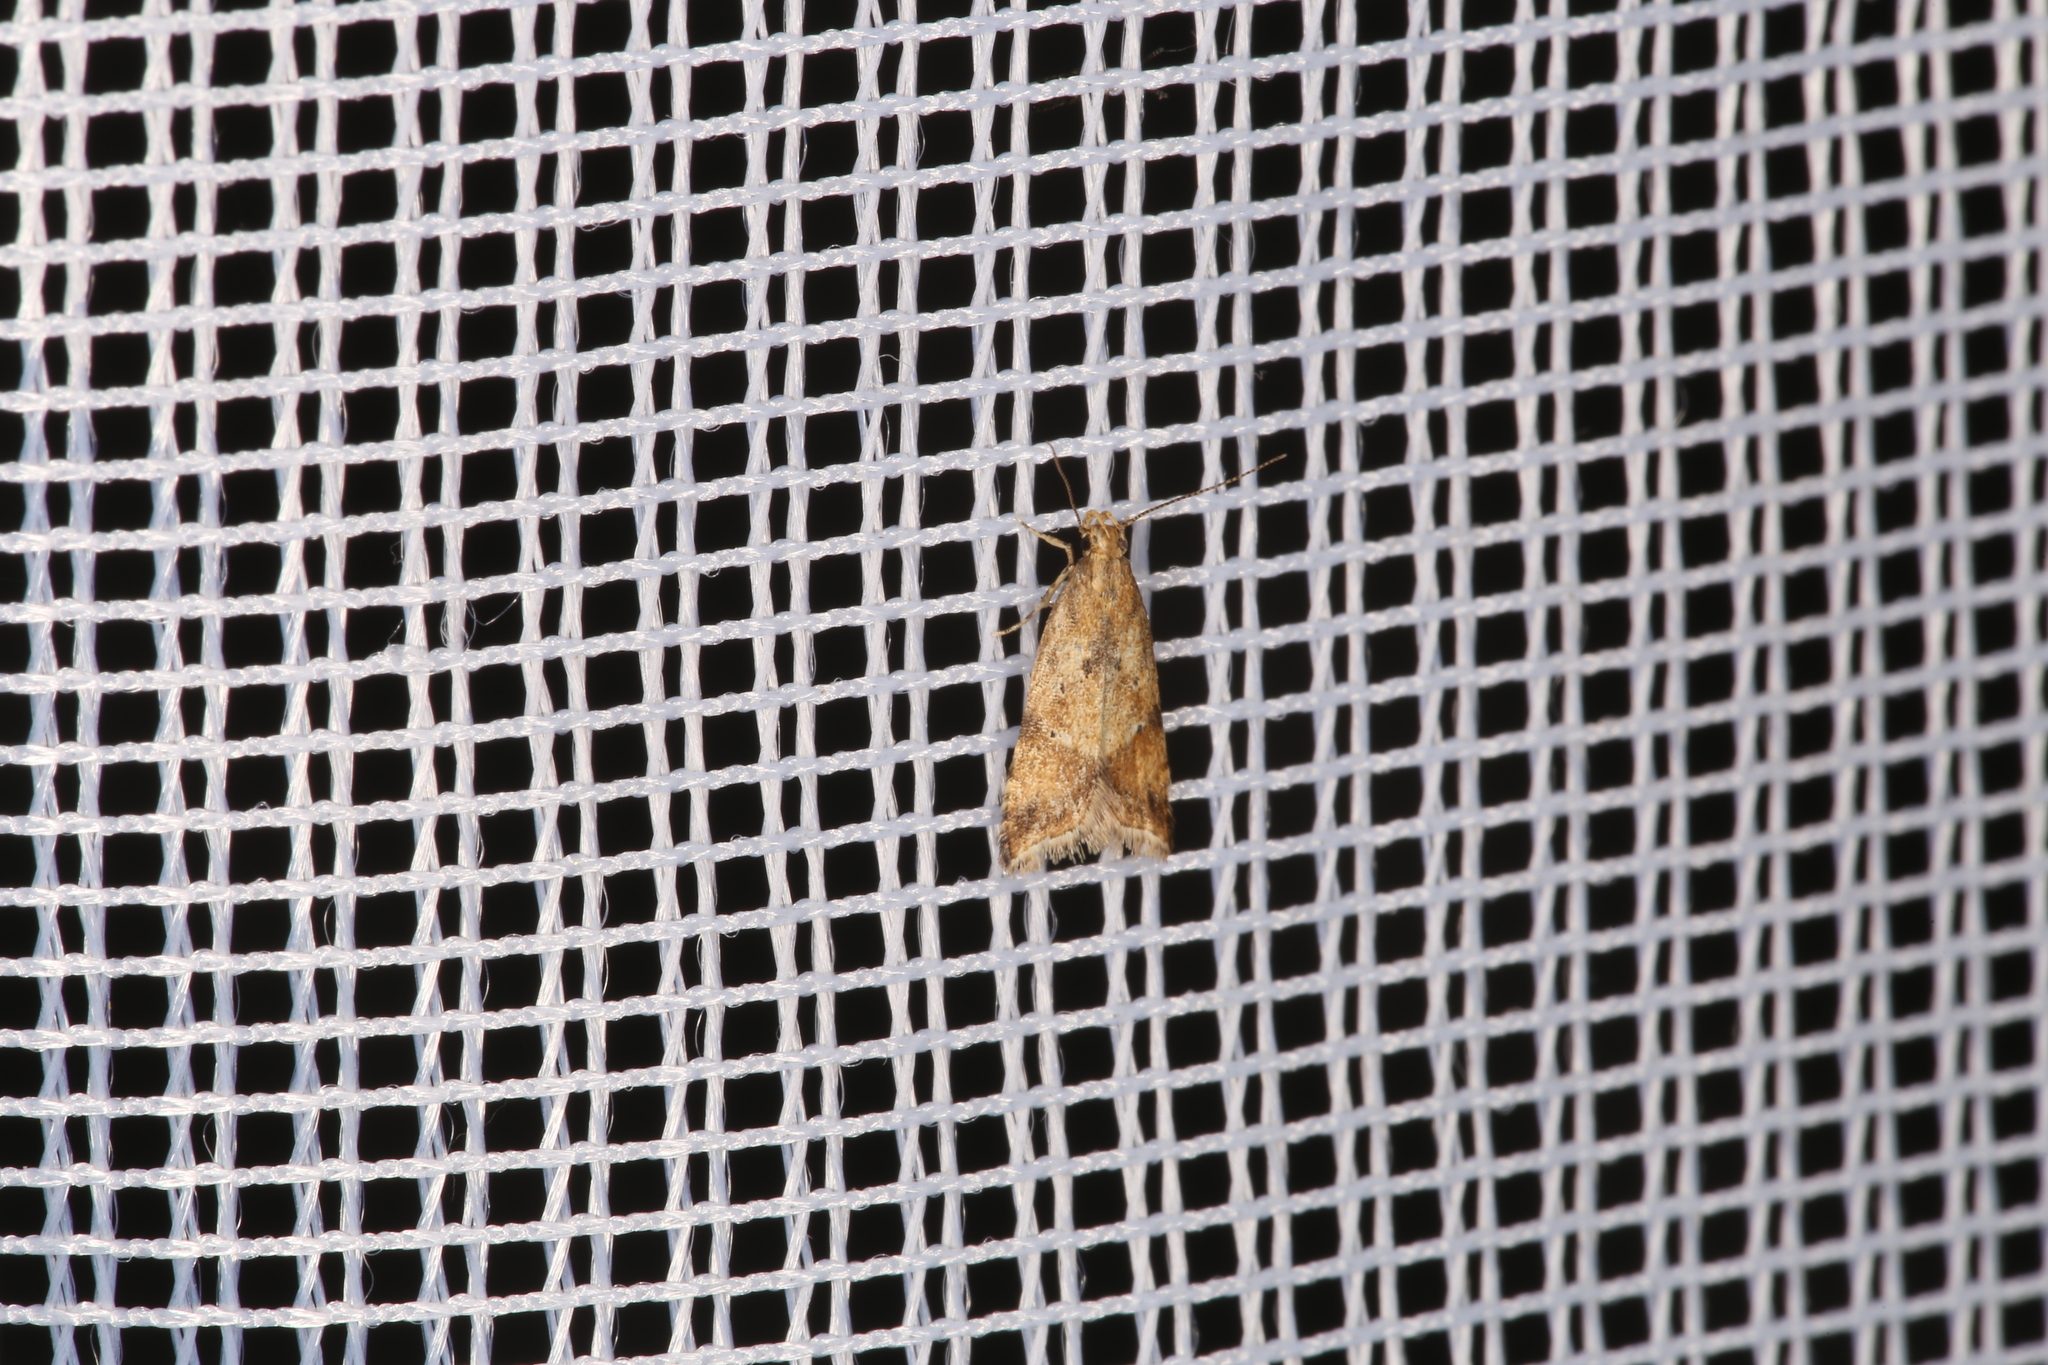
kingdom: Animalia
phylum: Arthropoda
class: Insecta
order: Lepidoptera
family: Gelechiidae
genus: Brachmia
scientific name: Brachmia blandella
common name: Gorse crest
